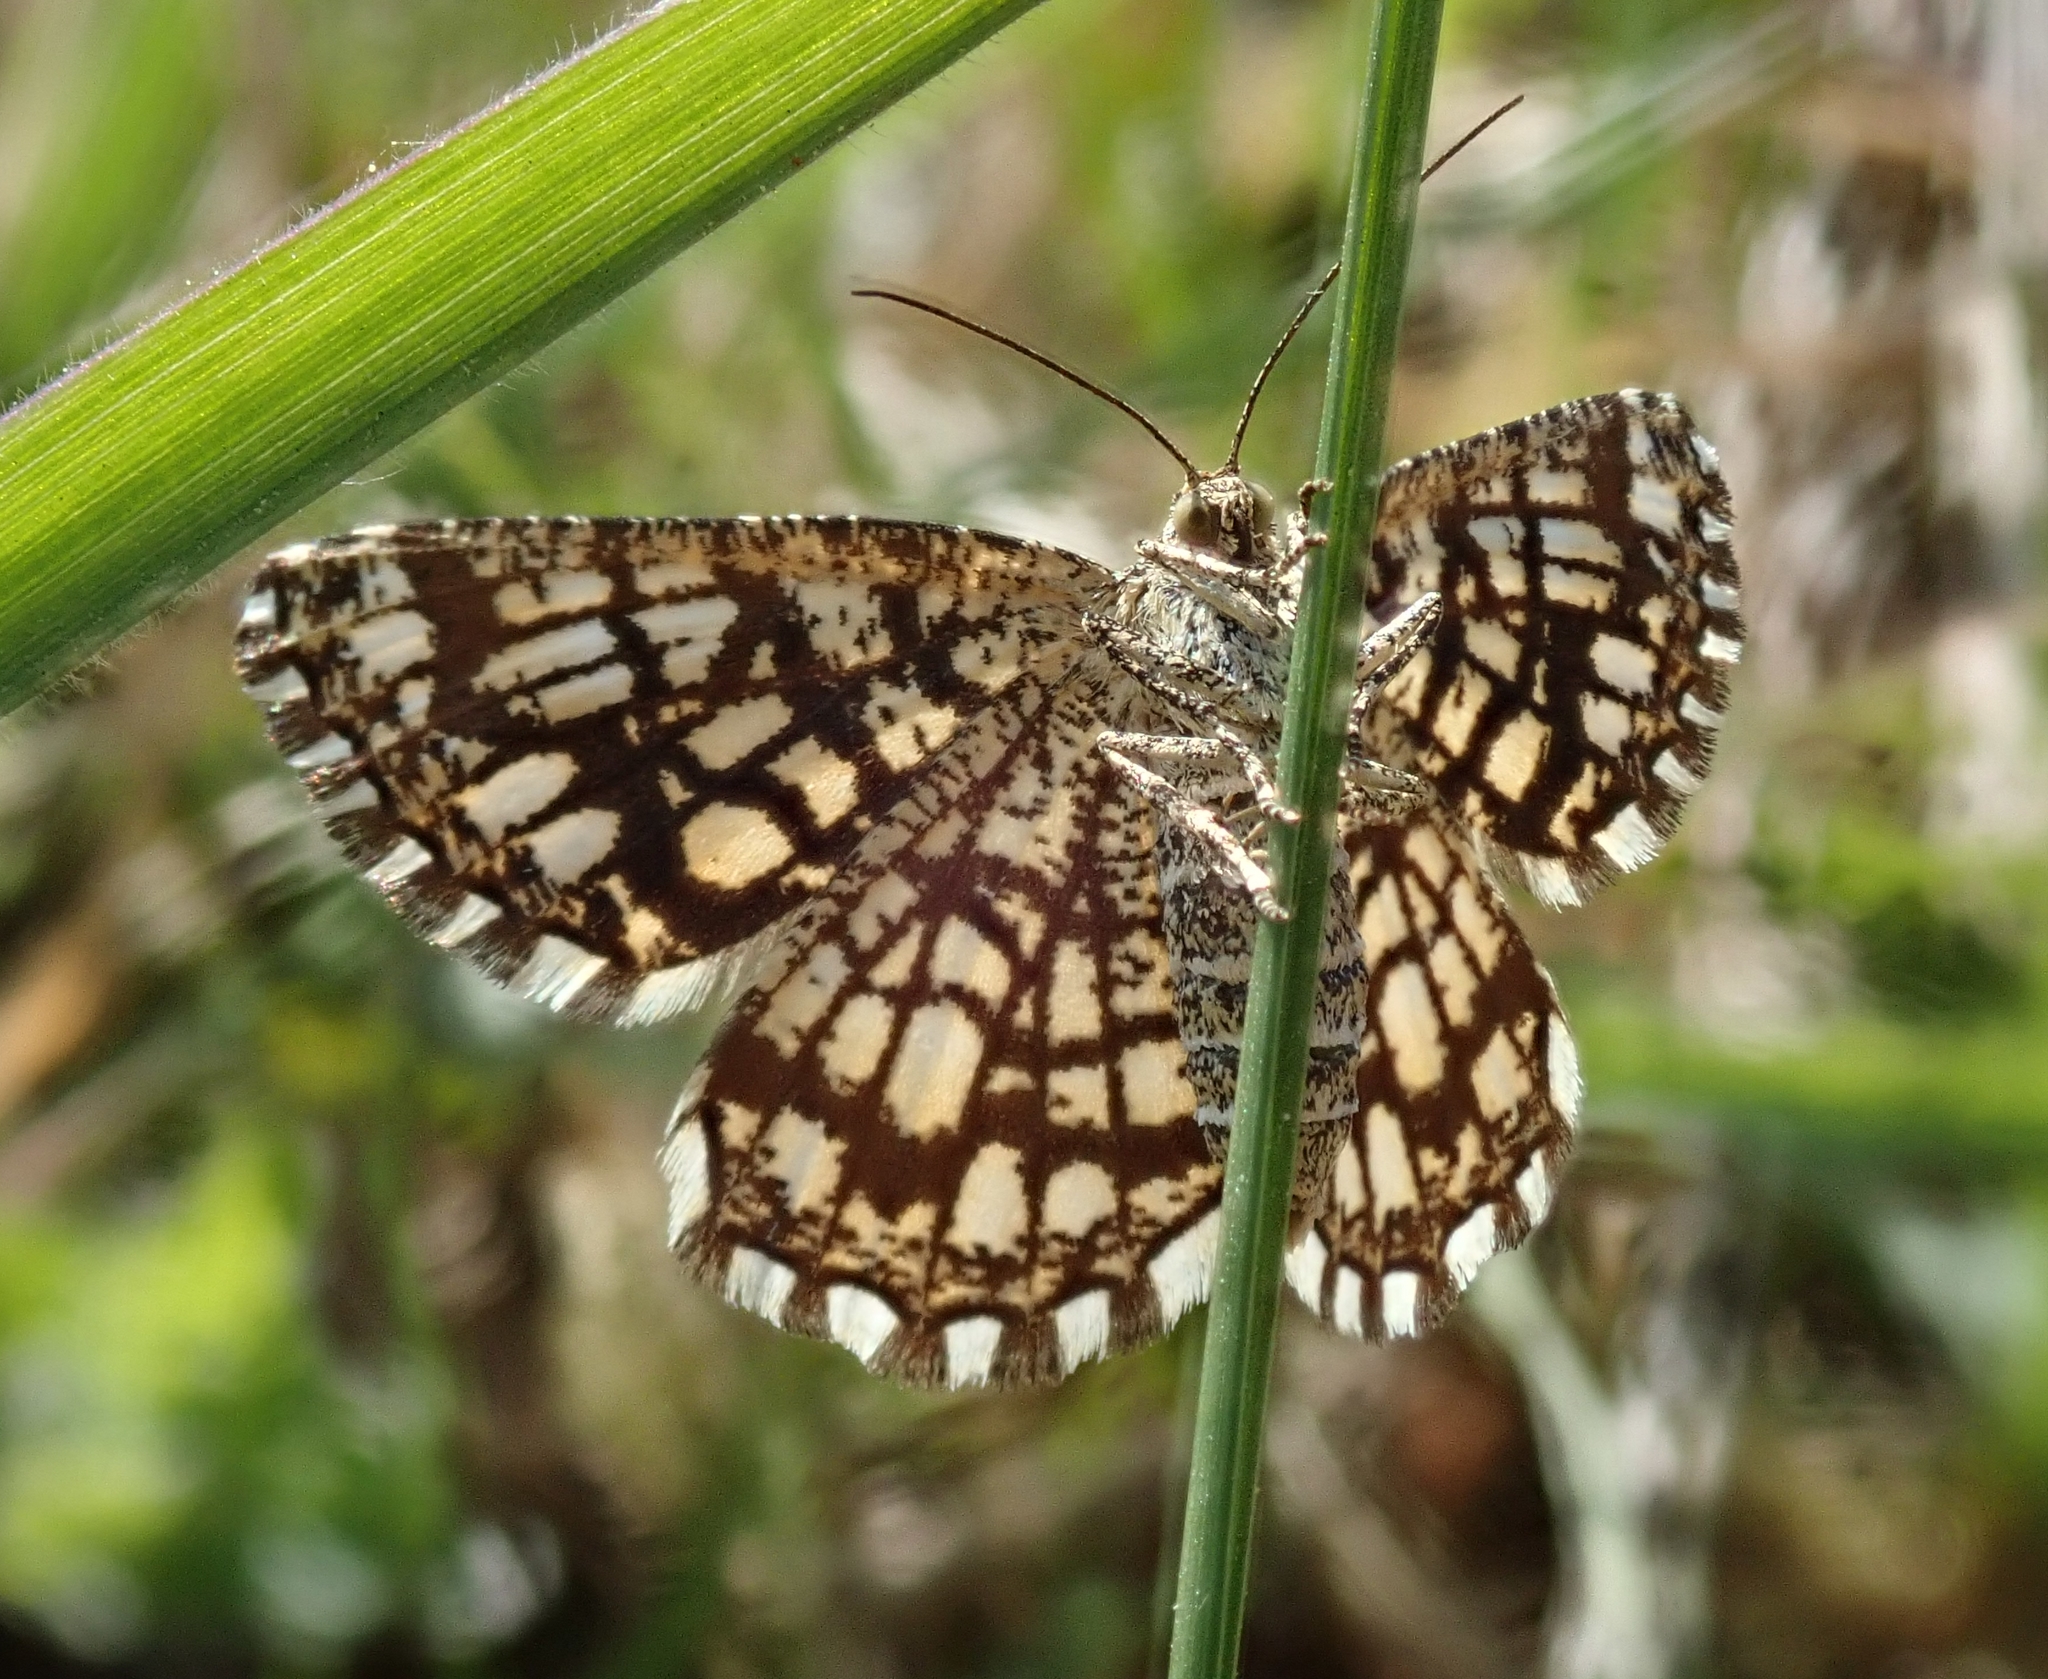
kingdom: Animalia
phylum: Arthropoda
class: Insecta
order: Lepidoptera
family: Geometridae
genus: Chiasmia
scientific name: Chiasmia clathrata
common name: Latticed heath
